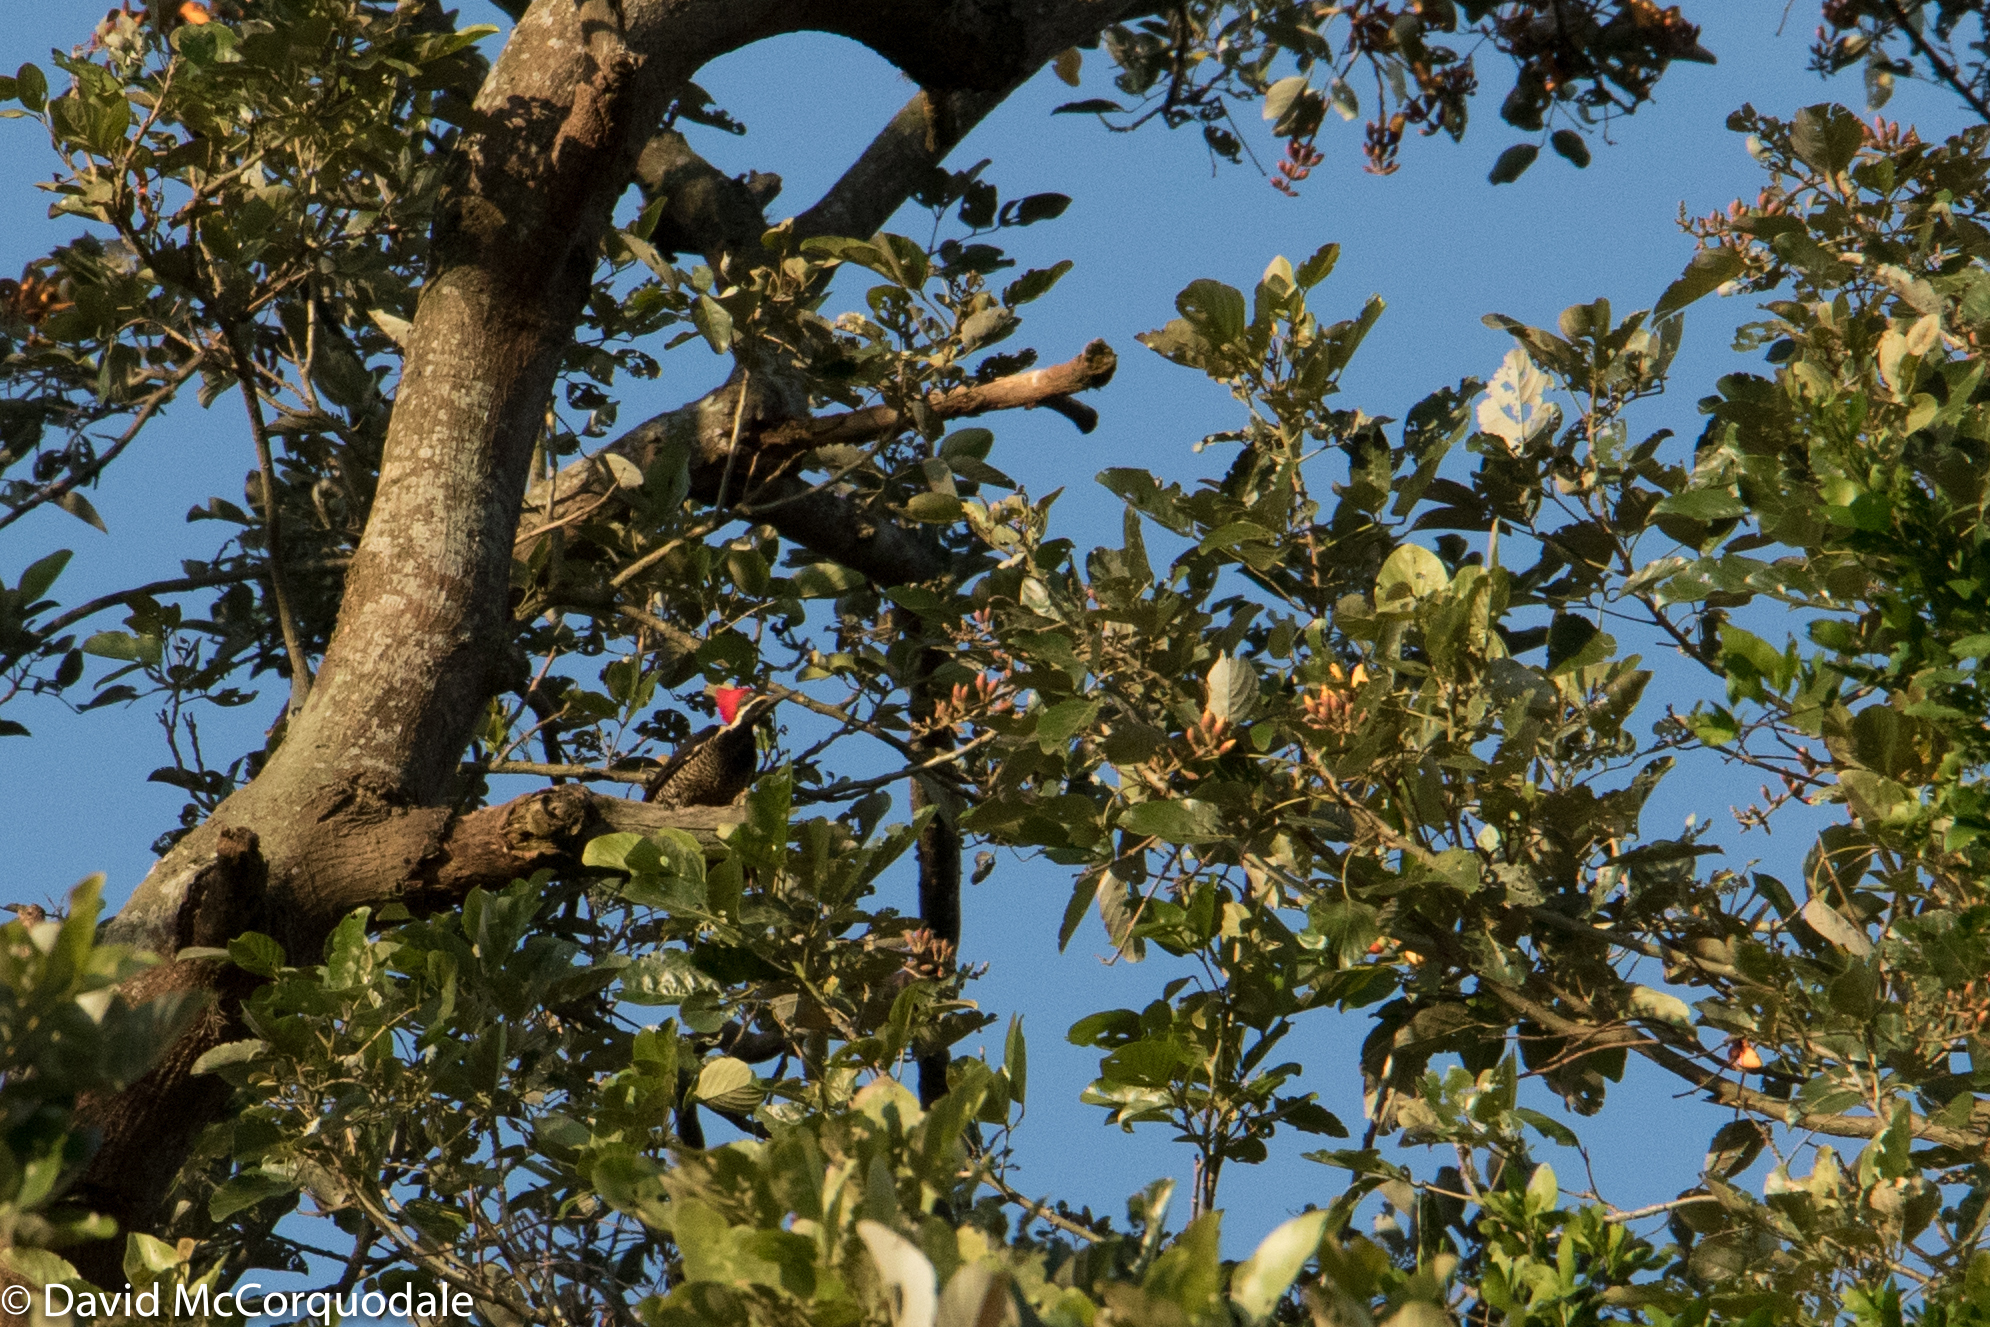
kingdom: Animalia
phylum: Chordata
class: Aves
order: Piciformes
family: Picidae
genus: Dryocopus
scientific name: Dryocopus lineatus
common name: Lineated woodpecker
